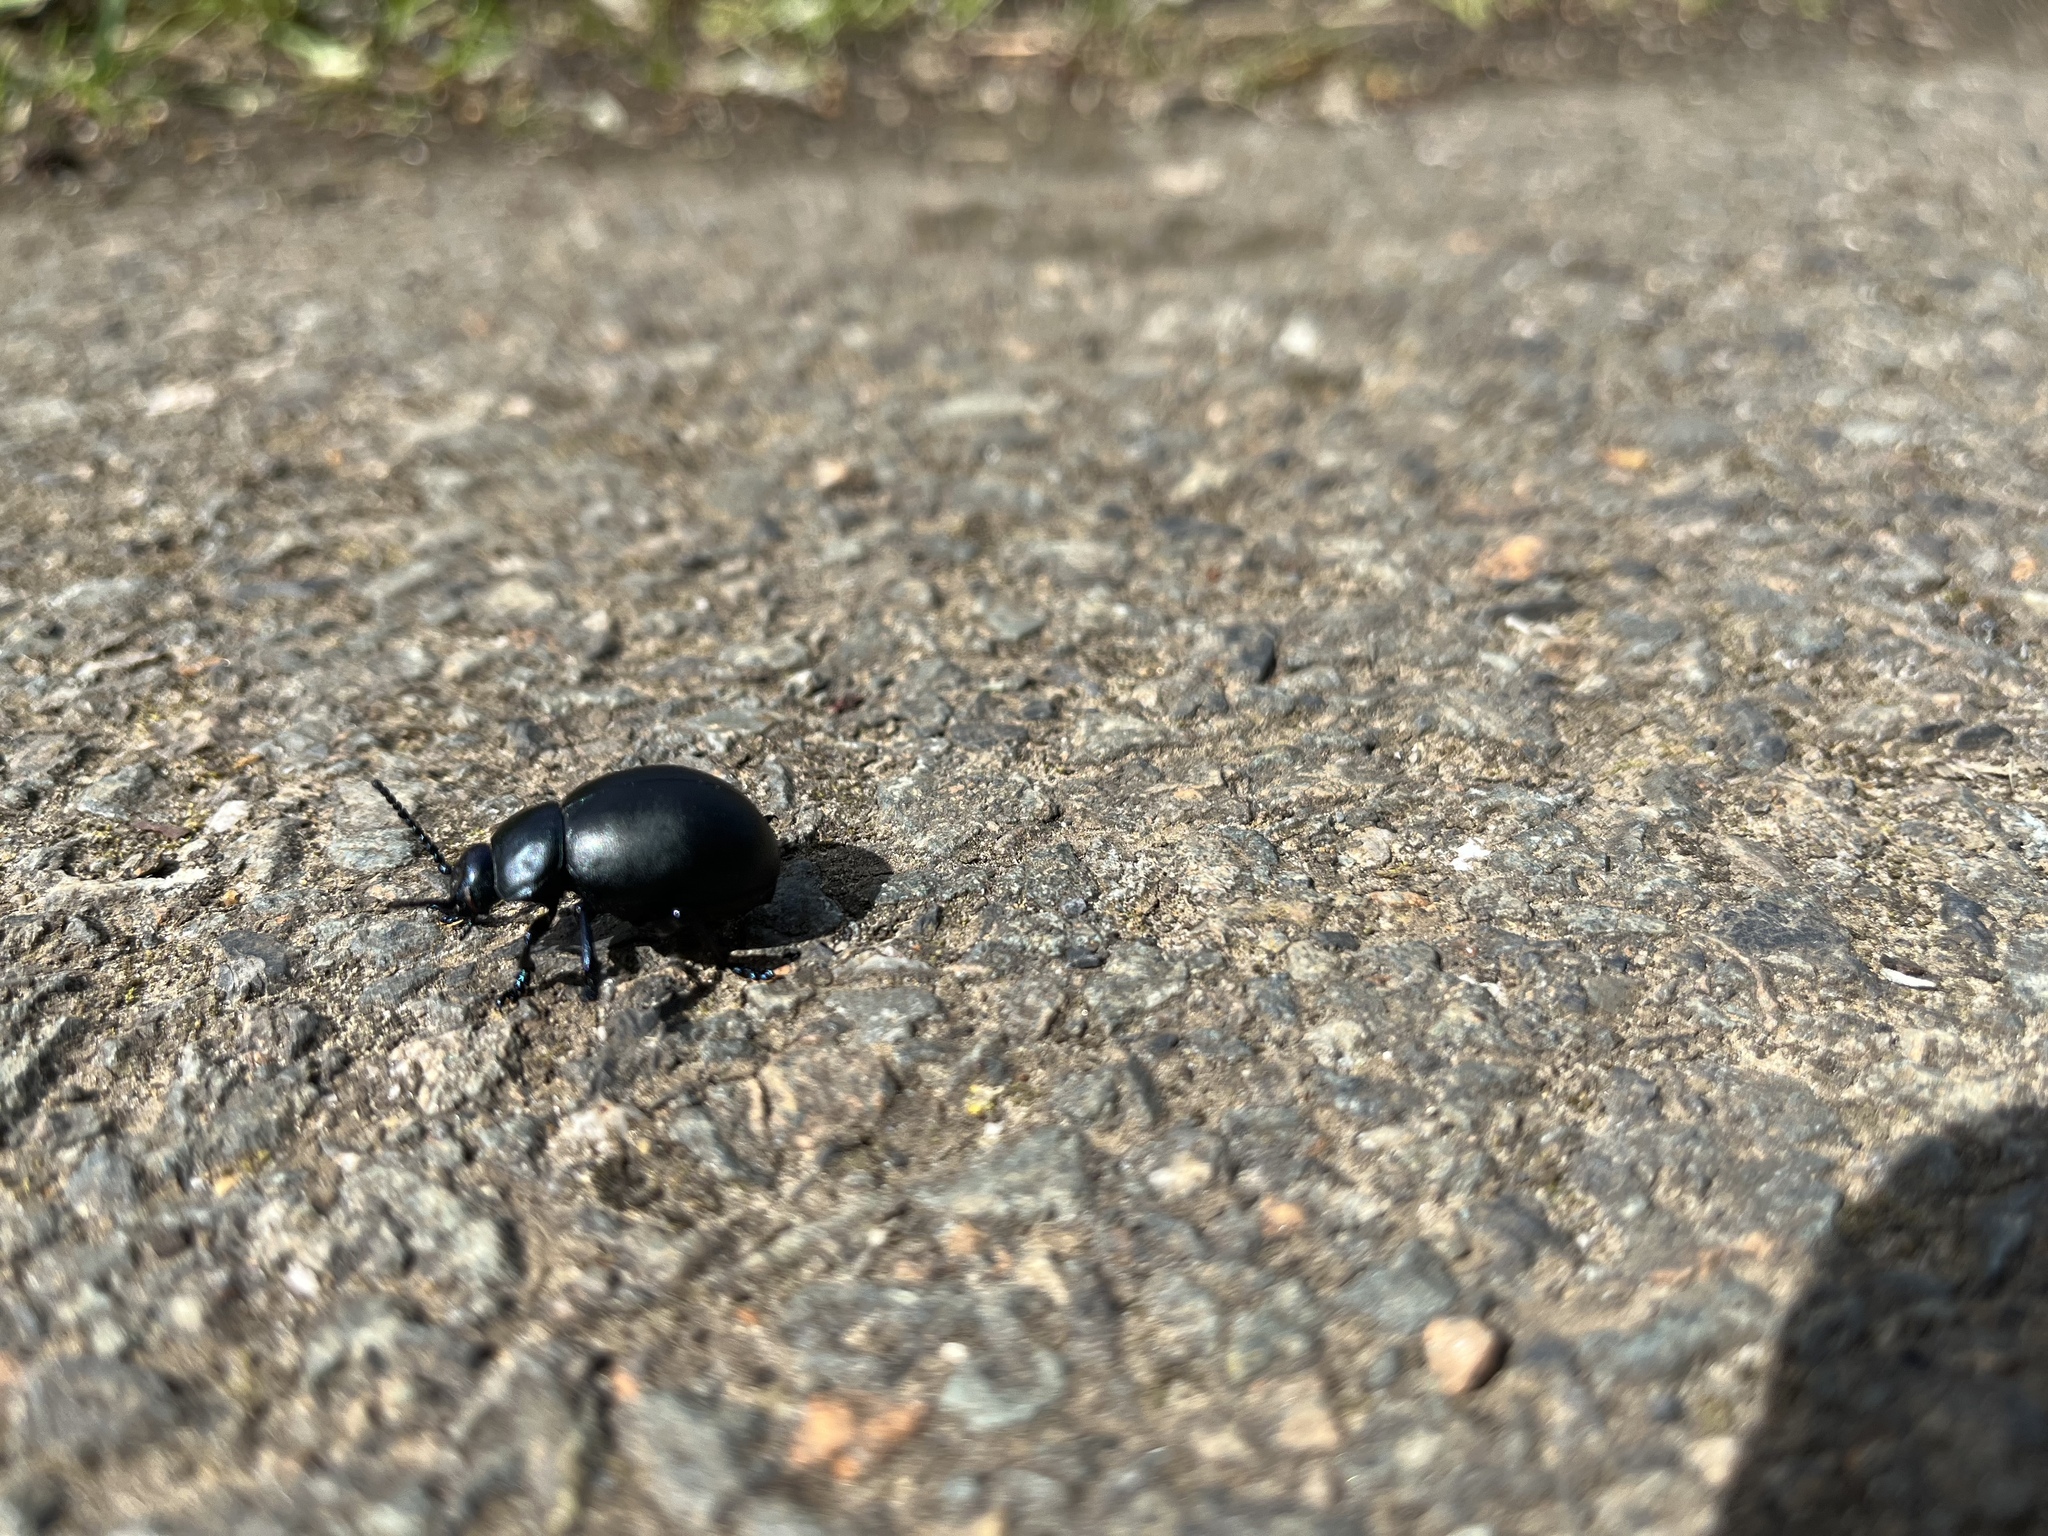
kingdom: Animalia
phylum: Arthropoda
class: Insecta
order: Coleoptera
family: Chrysomelidae
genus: Timarcha
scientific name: Timarcha tenebricosa
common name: Bloody-nosed beetle
